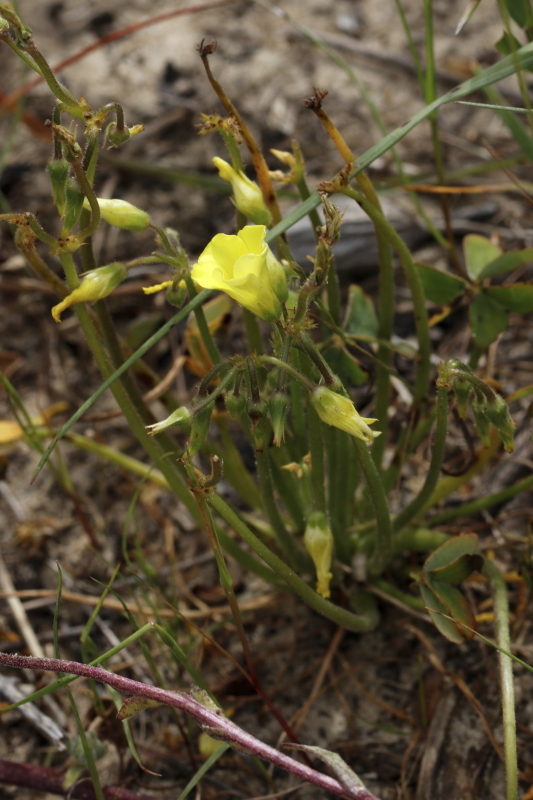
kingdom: Plantae
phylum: Tracheophyta
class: Magnoliopsida
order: Oxalidales
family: Oxalidaceae
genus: Oxalis
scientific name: Oxalis pes-caprae
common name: Bermuda-buttercup
